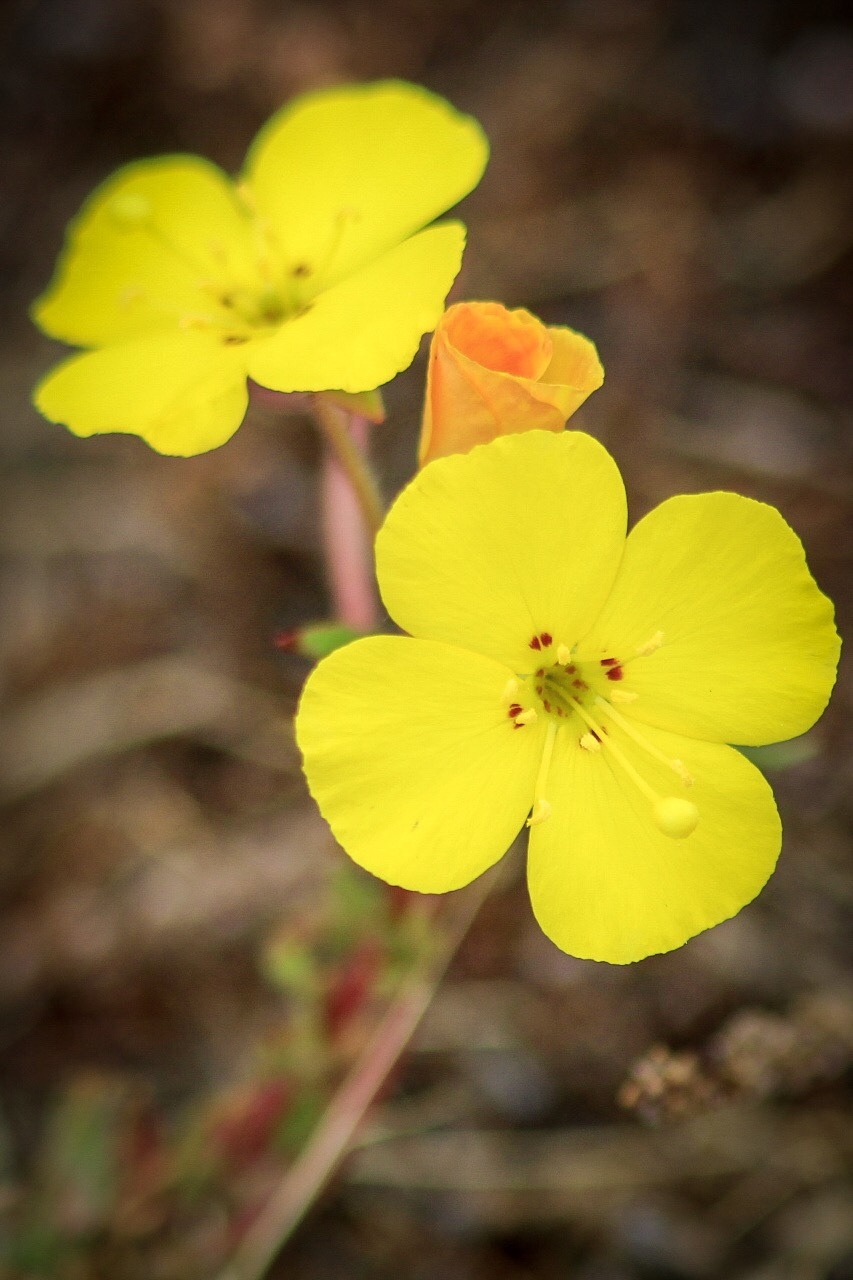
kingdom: Plantae
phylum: Tracheophyta
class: Magnoliopsida
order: Myrtales
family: Onagraceae
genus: Camissoniopsis
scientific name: Camissoniopsis bistorta
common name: Southern suncup
